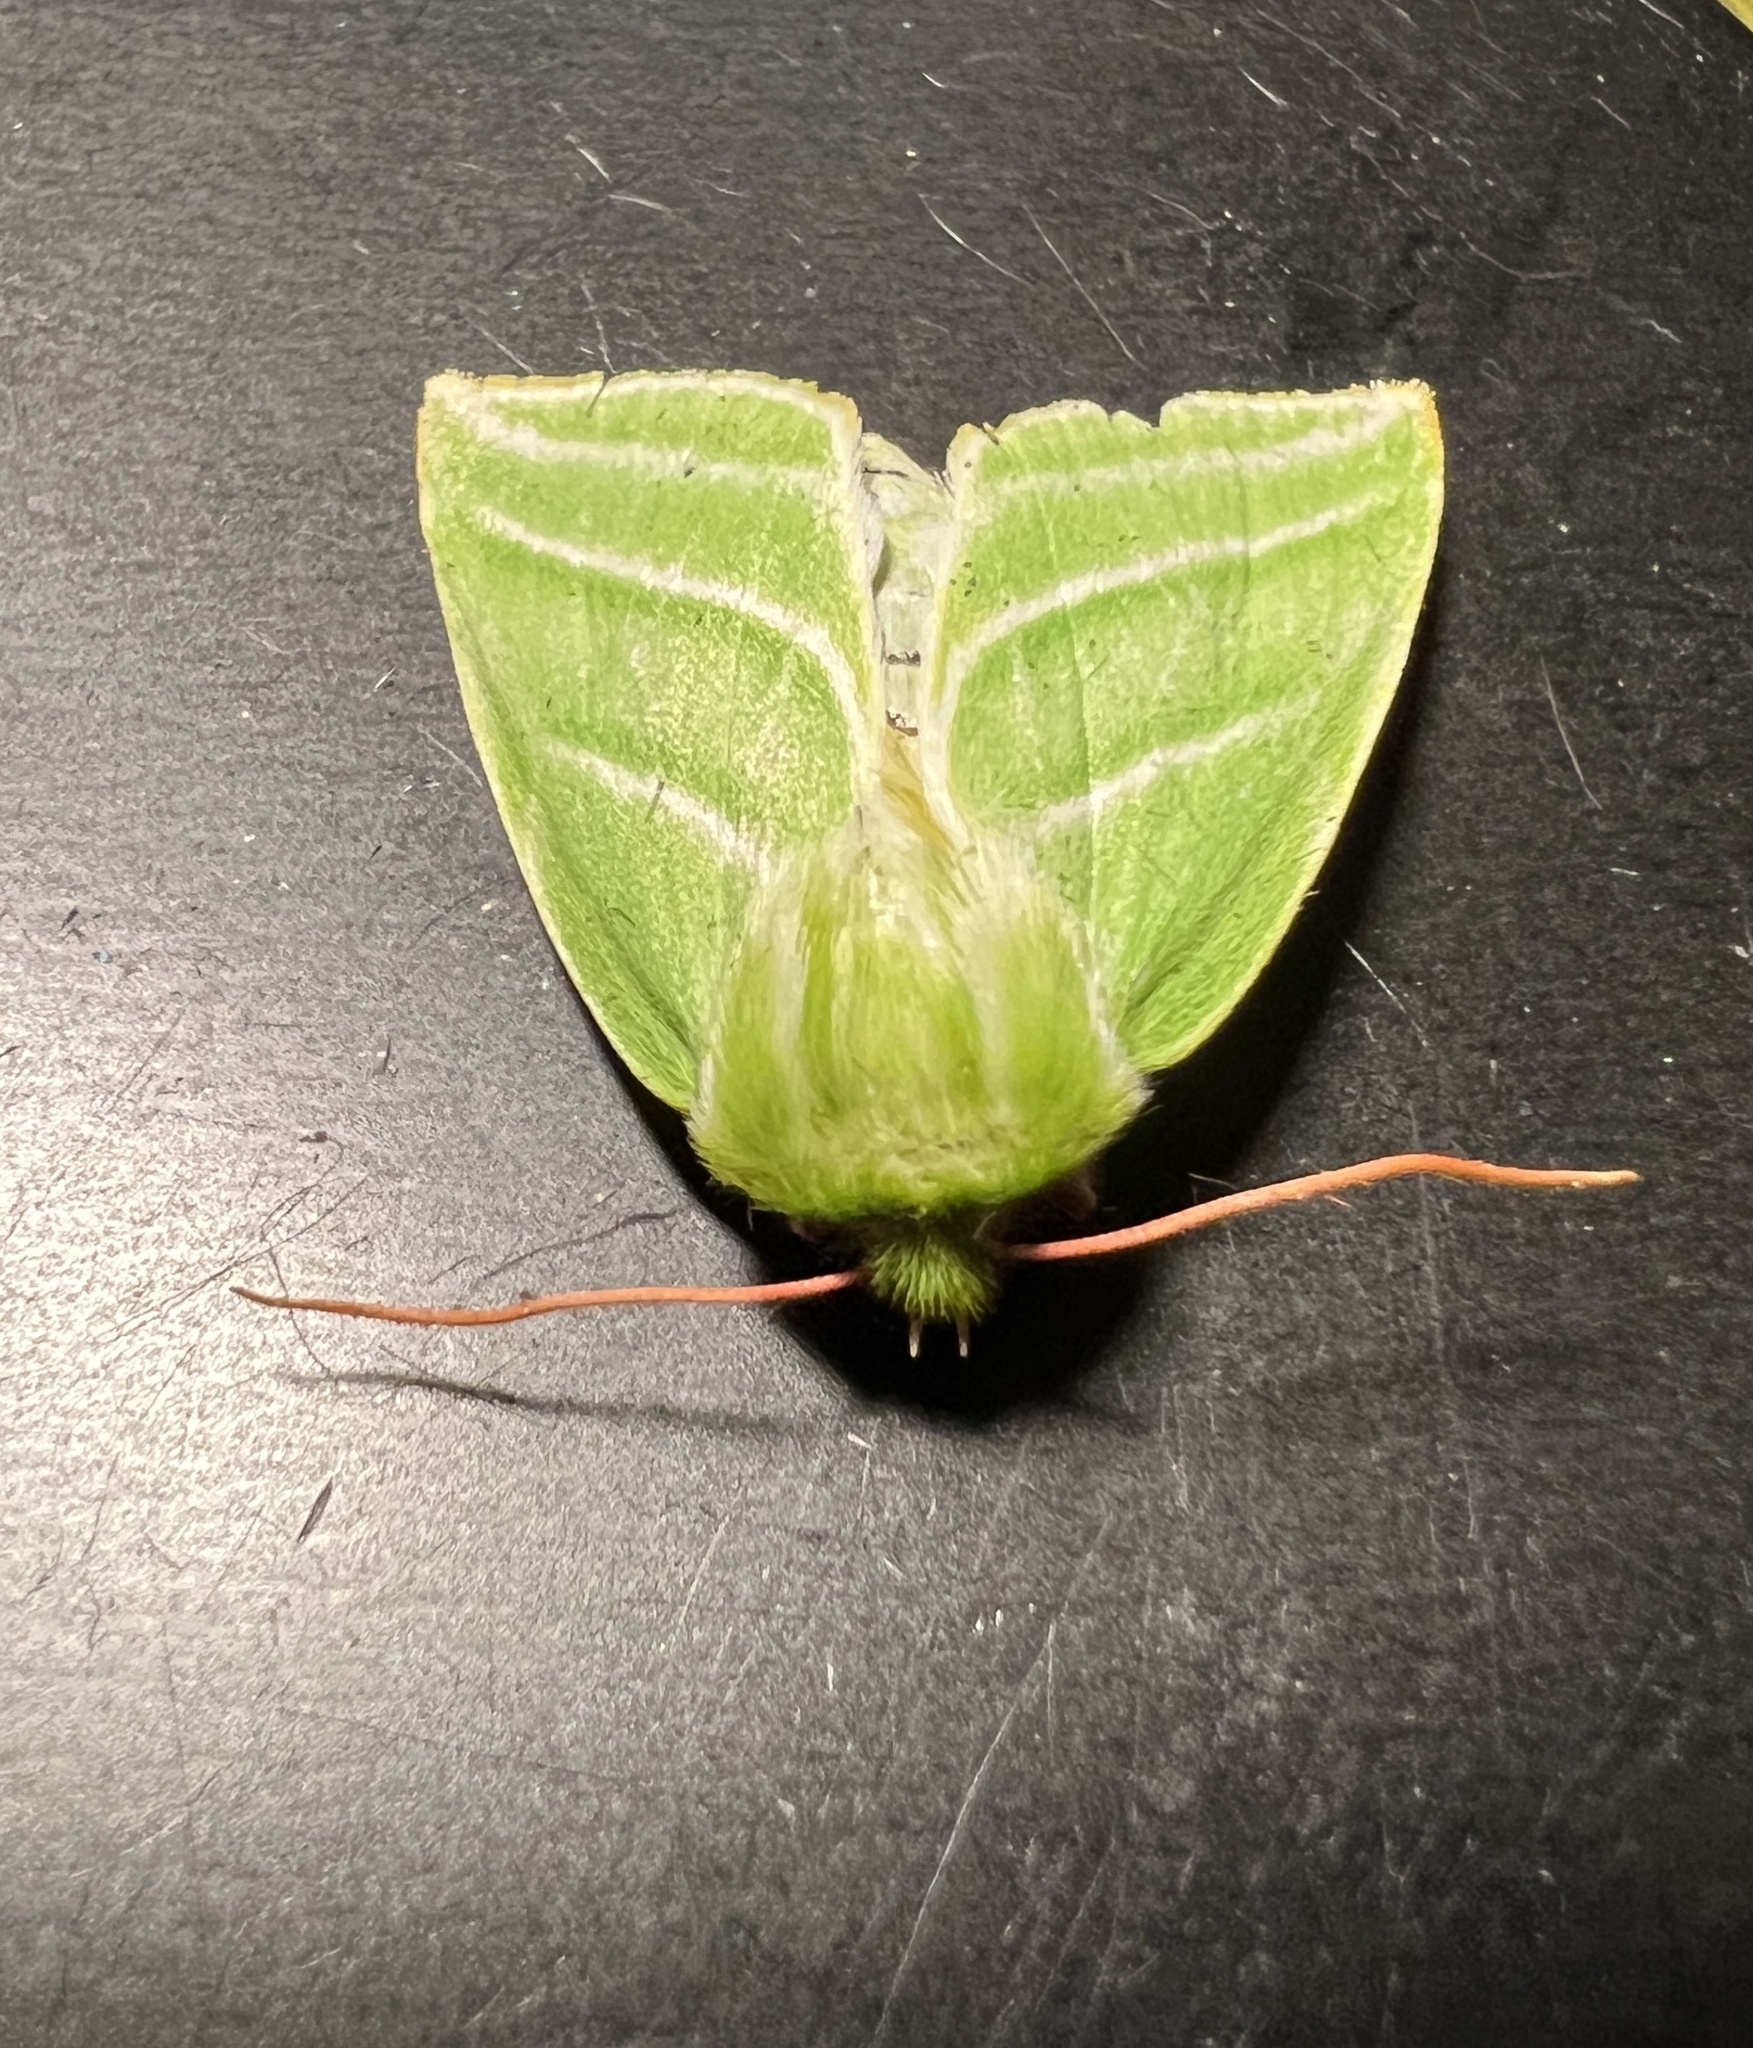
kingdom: Animalia
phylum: Arthropoda
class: Insecta
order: Lepidoptera
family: Nolidae
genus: Pseudoips
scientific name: Pseudoips prasinana
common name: Green silver-lines
